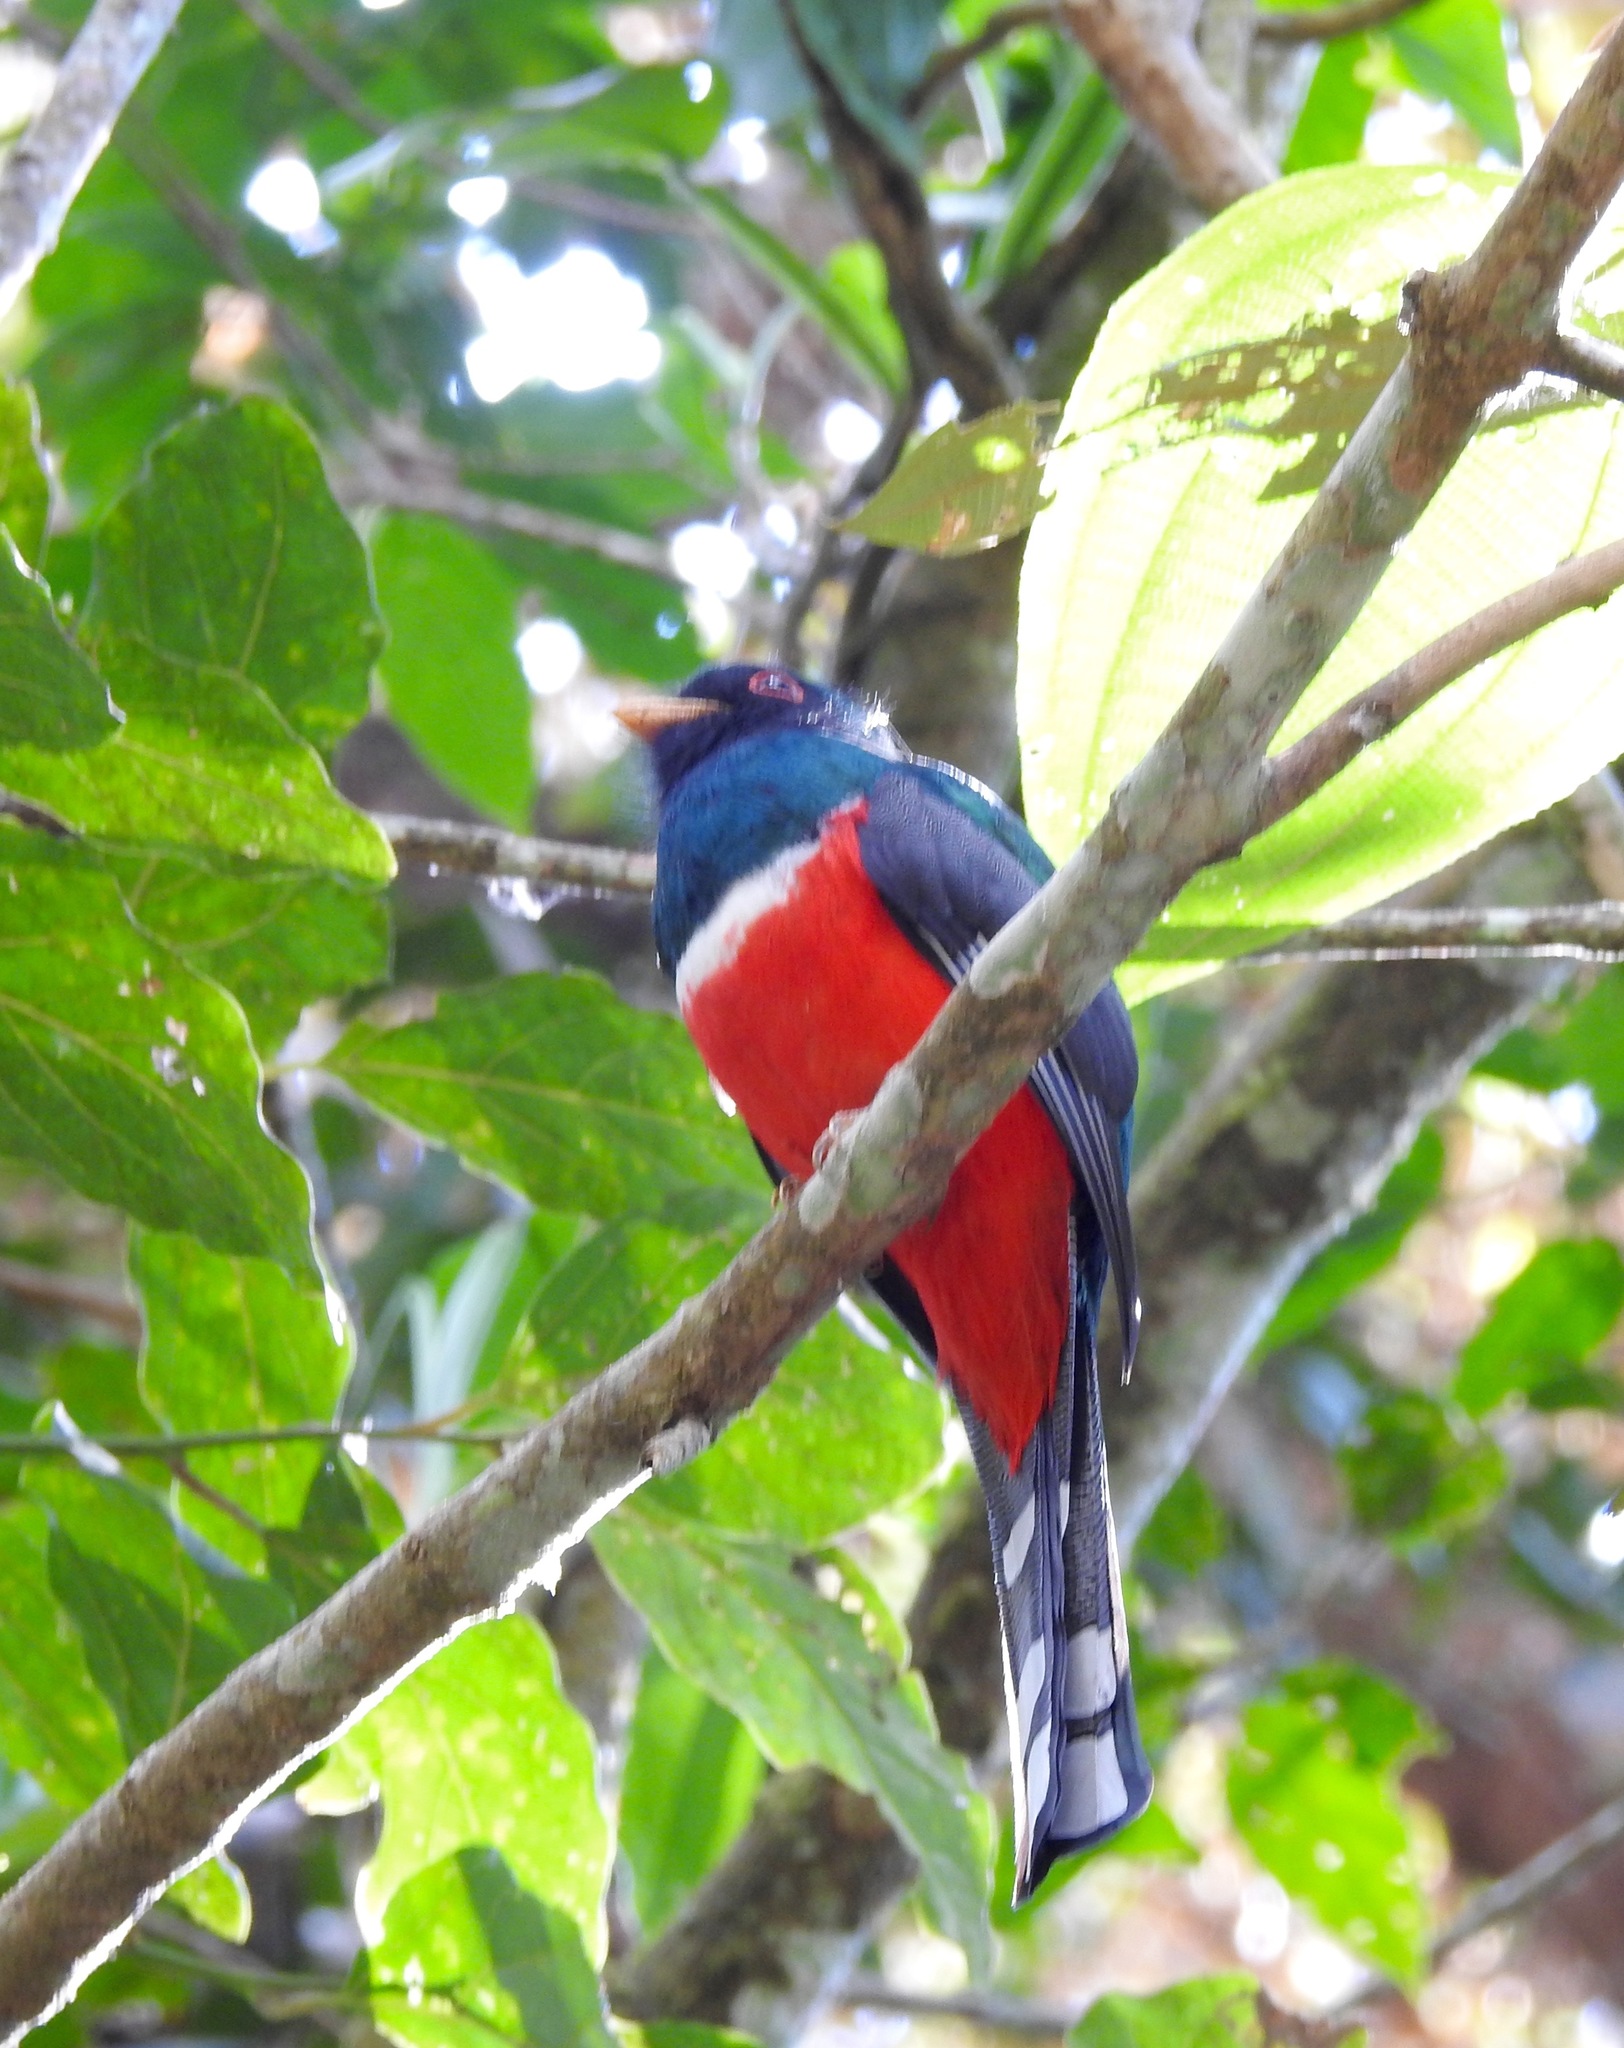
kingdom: Animalia
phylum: Chordata
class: Aves
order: Trogoniformes
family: Trogonidae
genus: Trogon
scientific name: Trogon personatus
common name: Masked trogon
